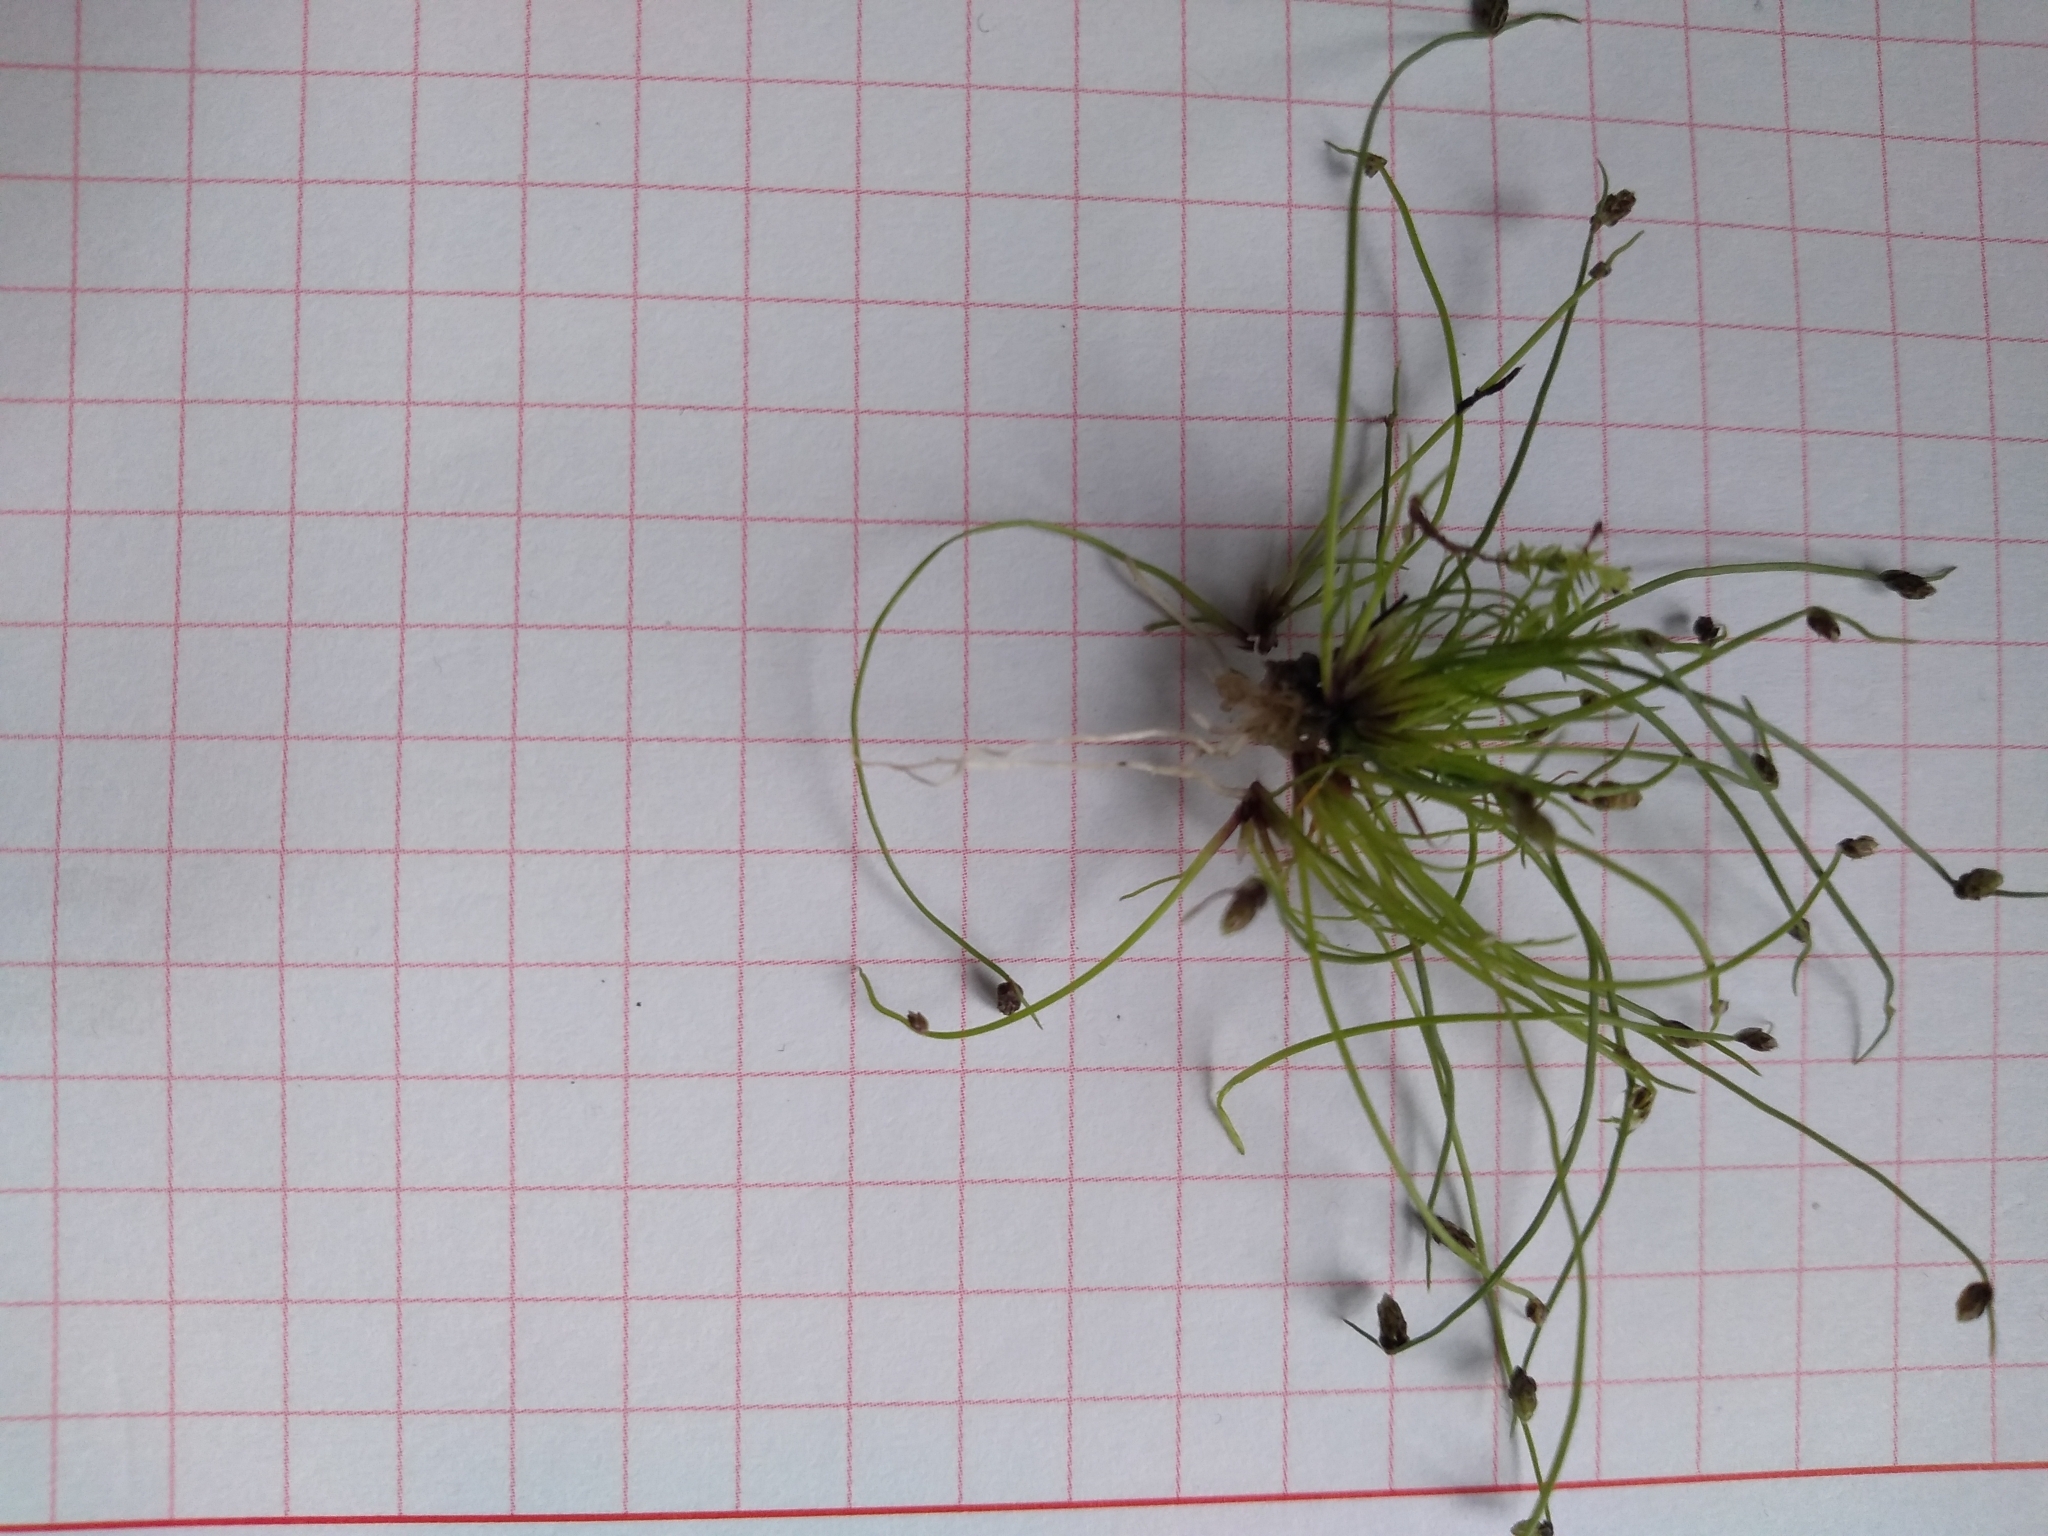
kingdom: Plantae
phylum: Tracheophyta
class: Liliopsida
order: Poales
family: Cyperaceae
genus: Isolepis
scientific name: Isolepis sepulcralis
